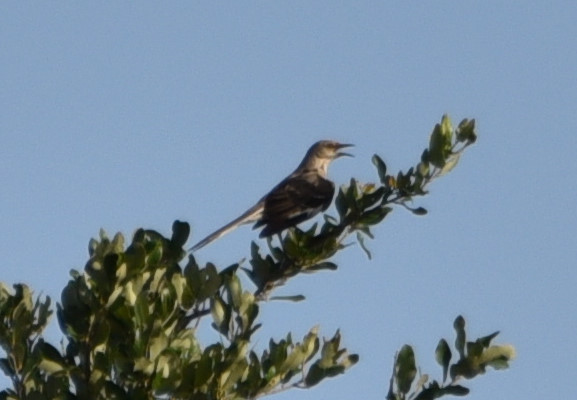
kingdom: Animalia
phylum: Chordata
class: Aves
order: Passeriformes
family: Mimidae
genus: Mimus
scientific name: Mimus polyglottos
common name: Northern mockingbird
